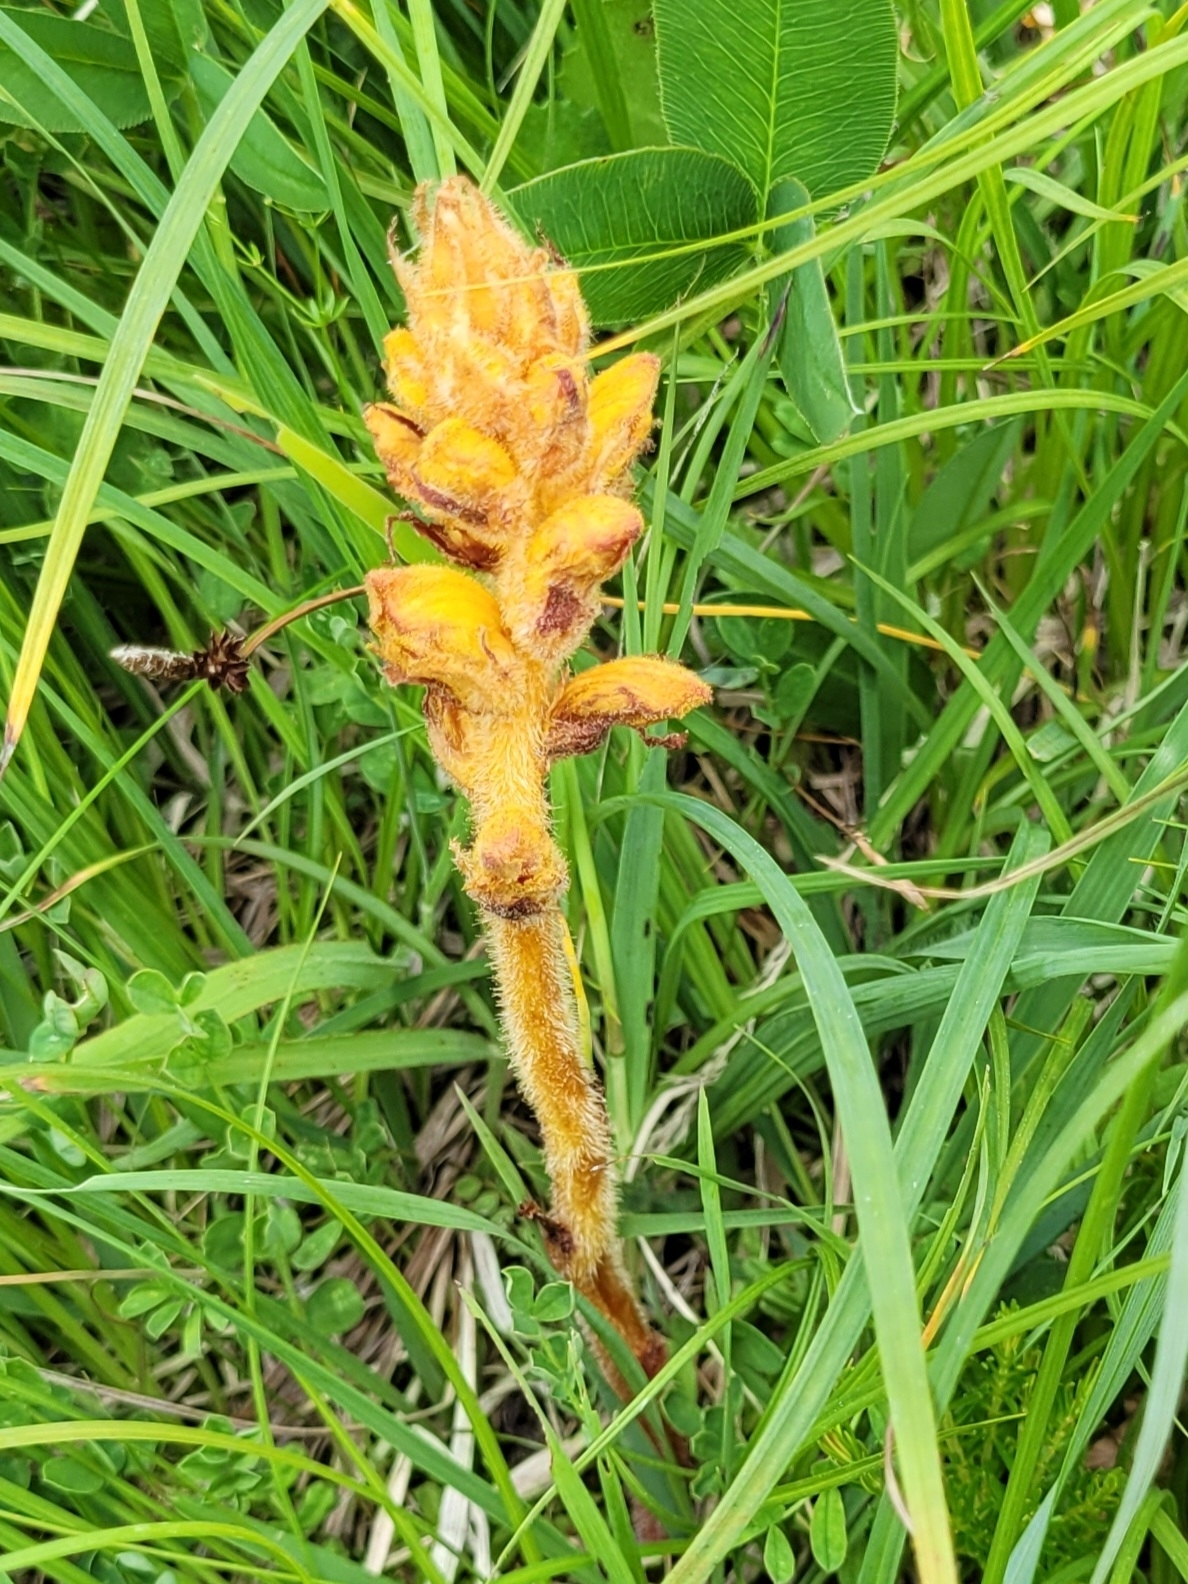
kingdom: Plantae
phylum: Tracheophyta
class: Magnoliopsida
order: Lamiales
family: Orobanchaceae
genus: Orobanche
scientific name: Orobanche gracilis
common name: Slender broomrape
